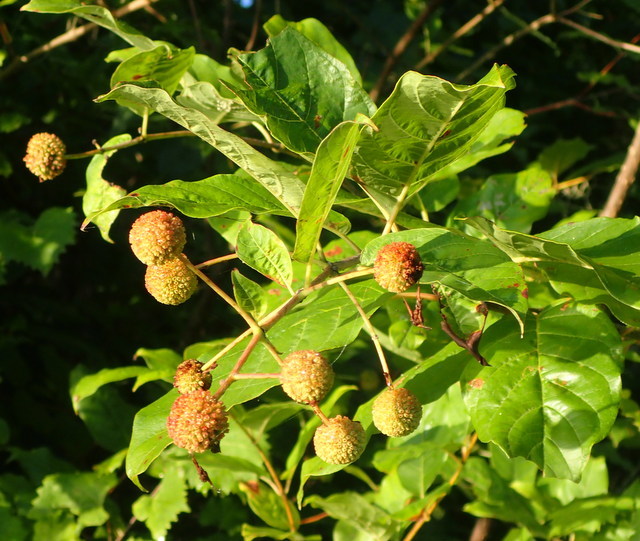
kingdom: Plantae
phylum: Tracheophyta
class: Magnoliopsida
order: Gentianales
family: Rubiaceae
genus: Cephalanthus
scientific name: Cephalanthus occidentalis
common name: Button-willow
